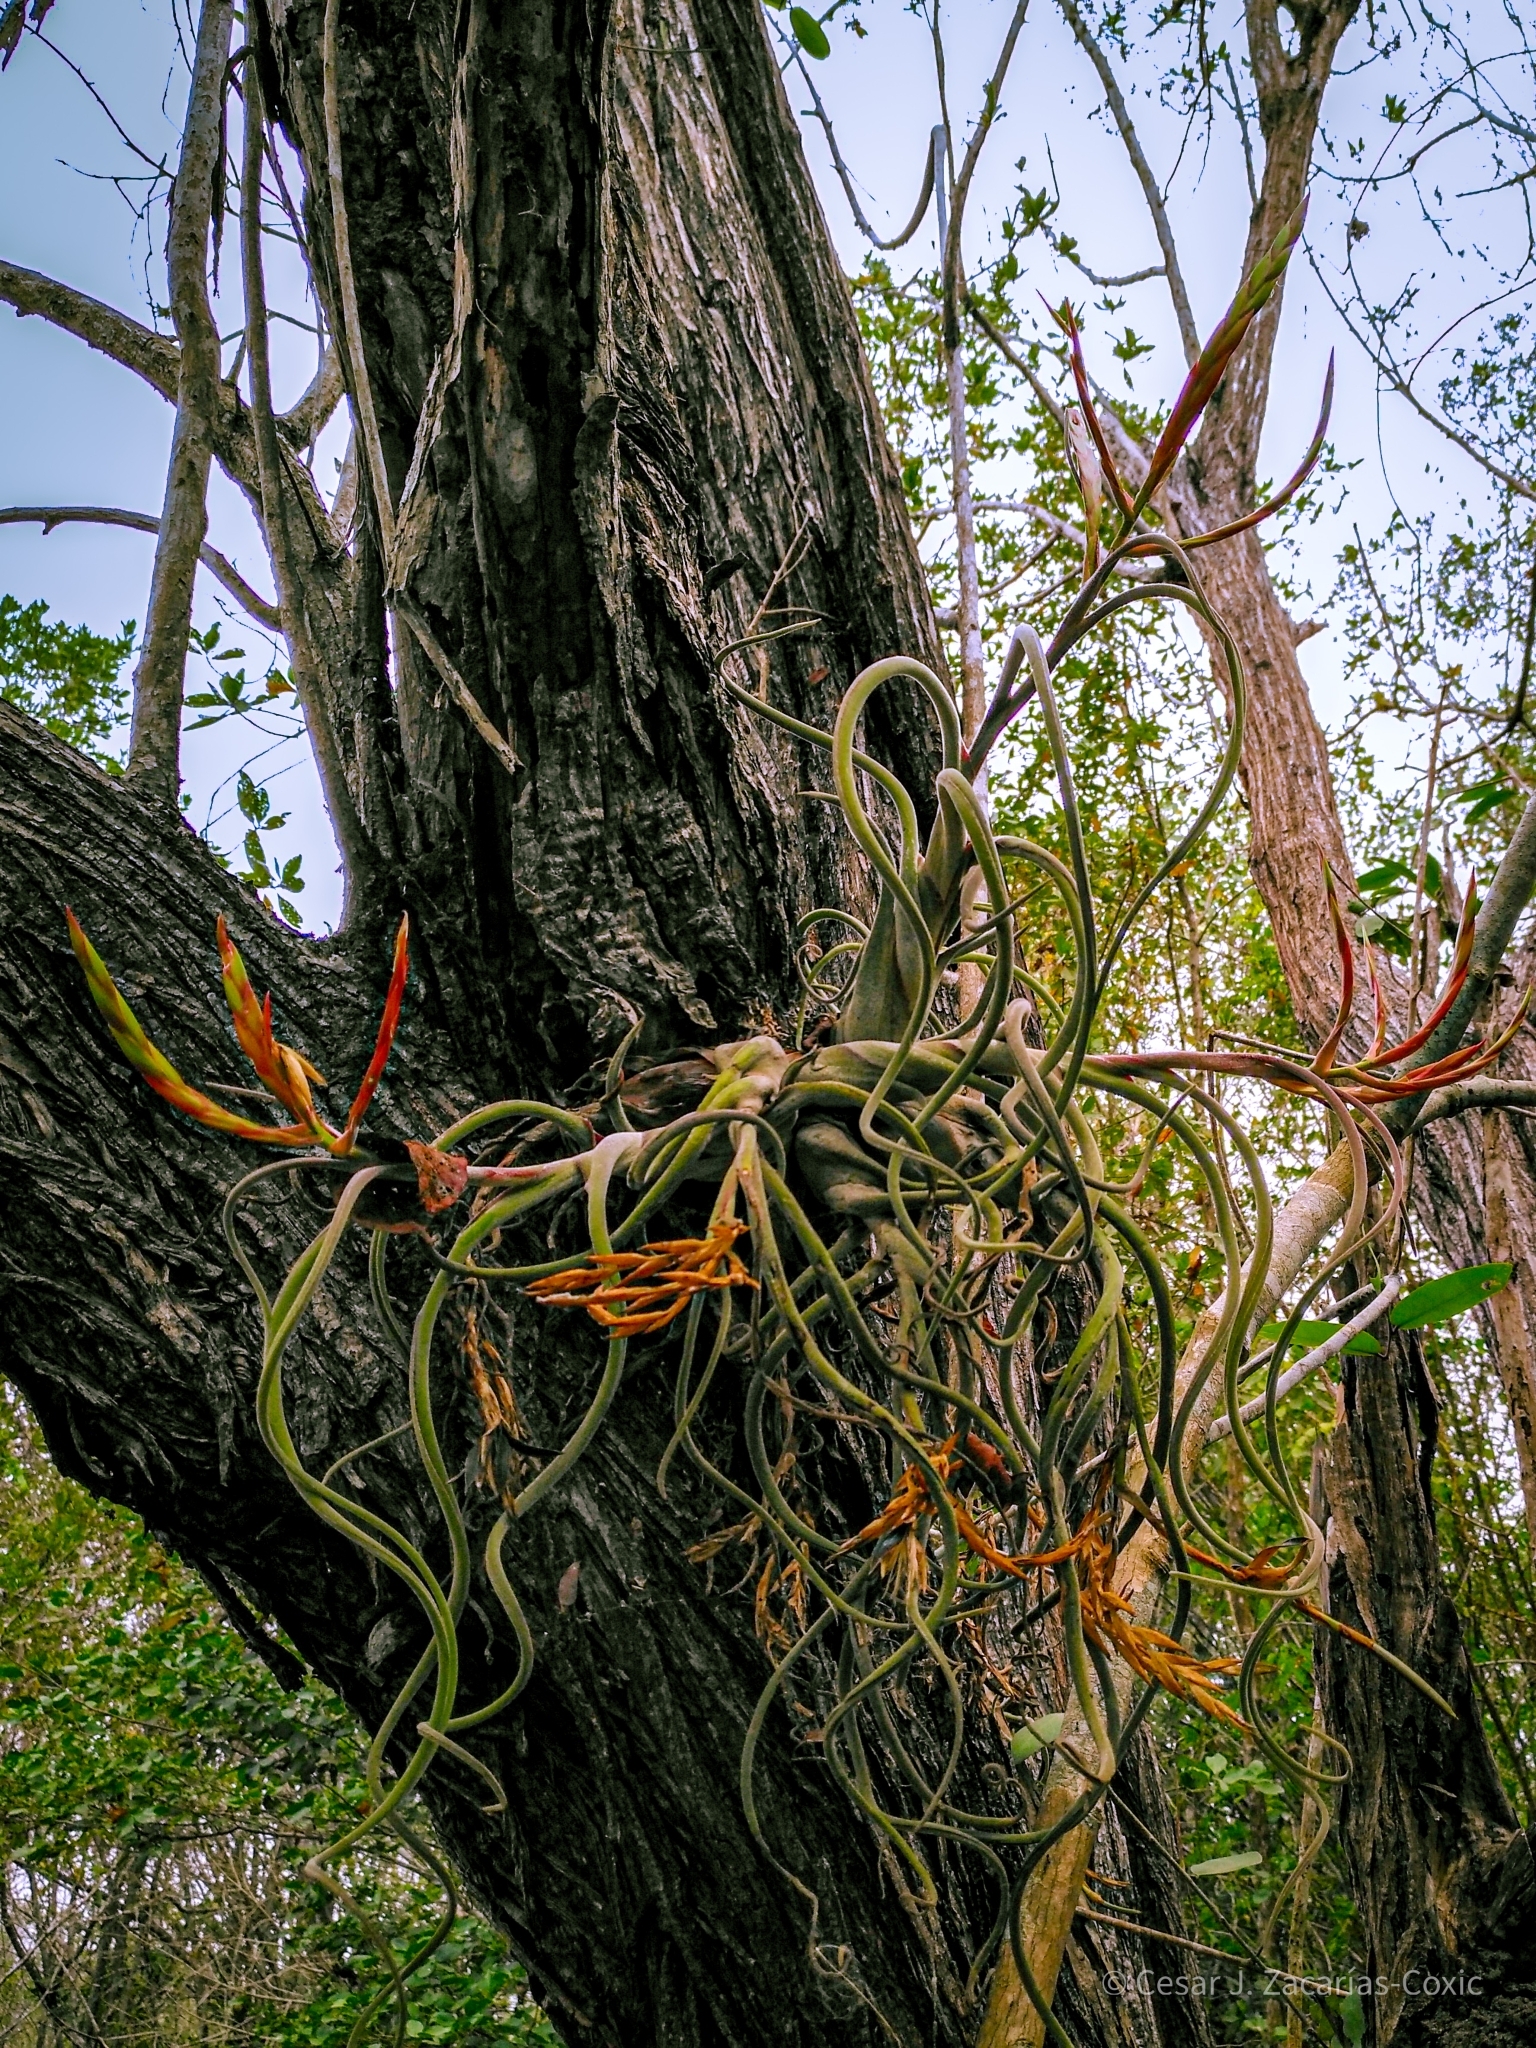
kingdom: Plantae
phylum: Tracheophyta
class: Liliopsida
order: Poales
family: Bromeliaceae
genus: Tillandsia
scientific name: Tillandsia caput-medusae
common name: Octopus plant
